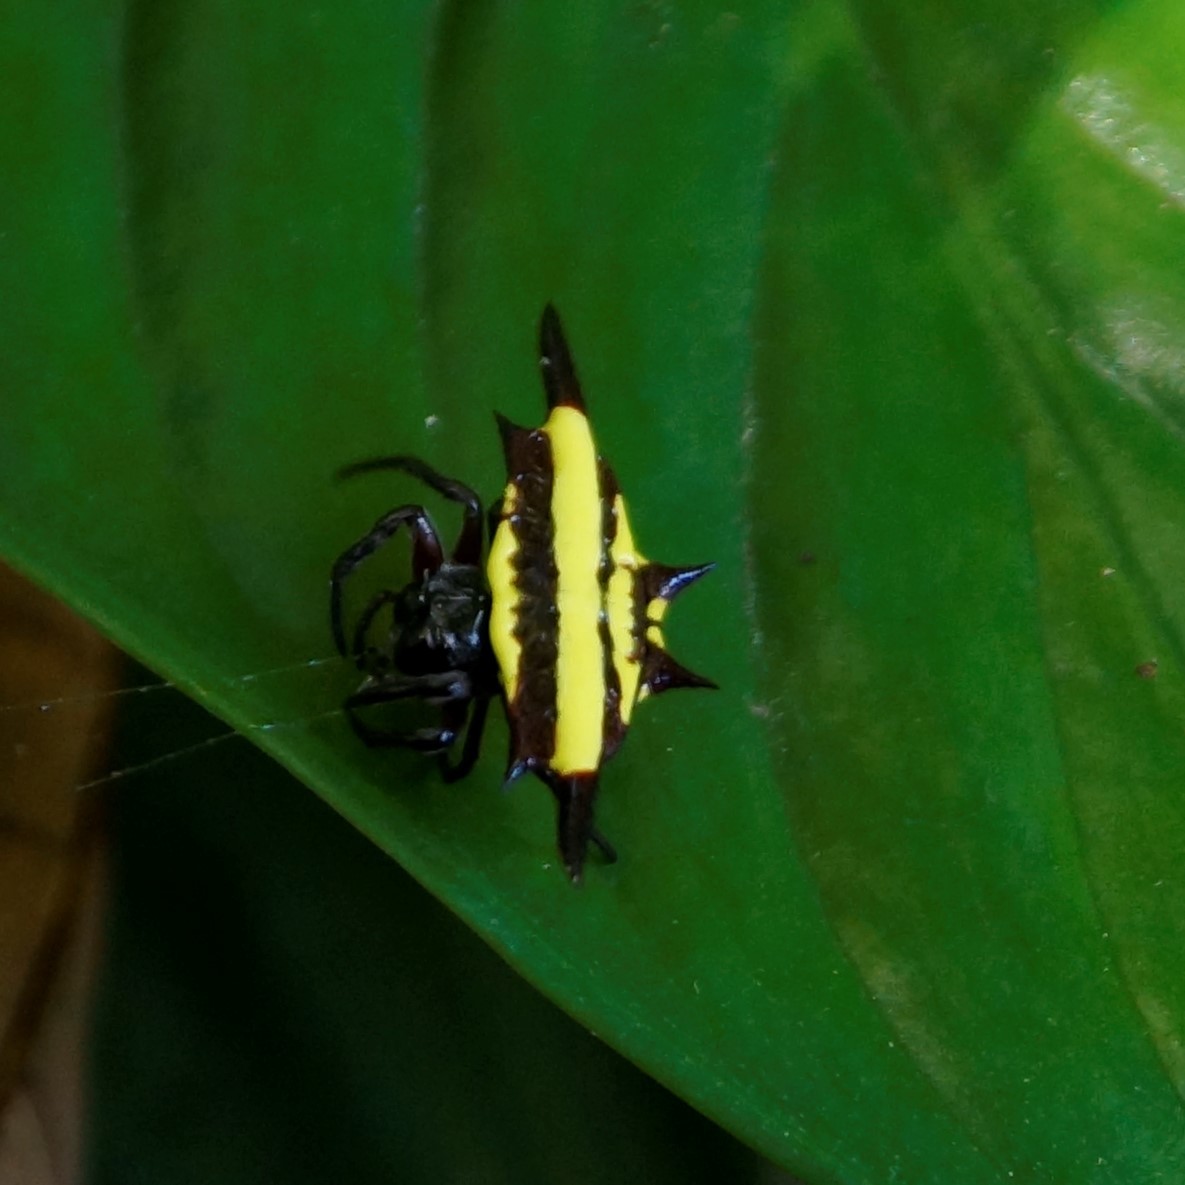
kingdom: Animalia
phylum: Arthropoda
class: Arachnida
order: Araneae
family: Araneidae
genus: Gasteracantha
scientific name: Gasteracantha fornicata
